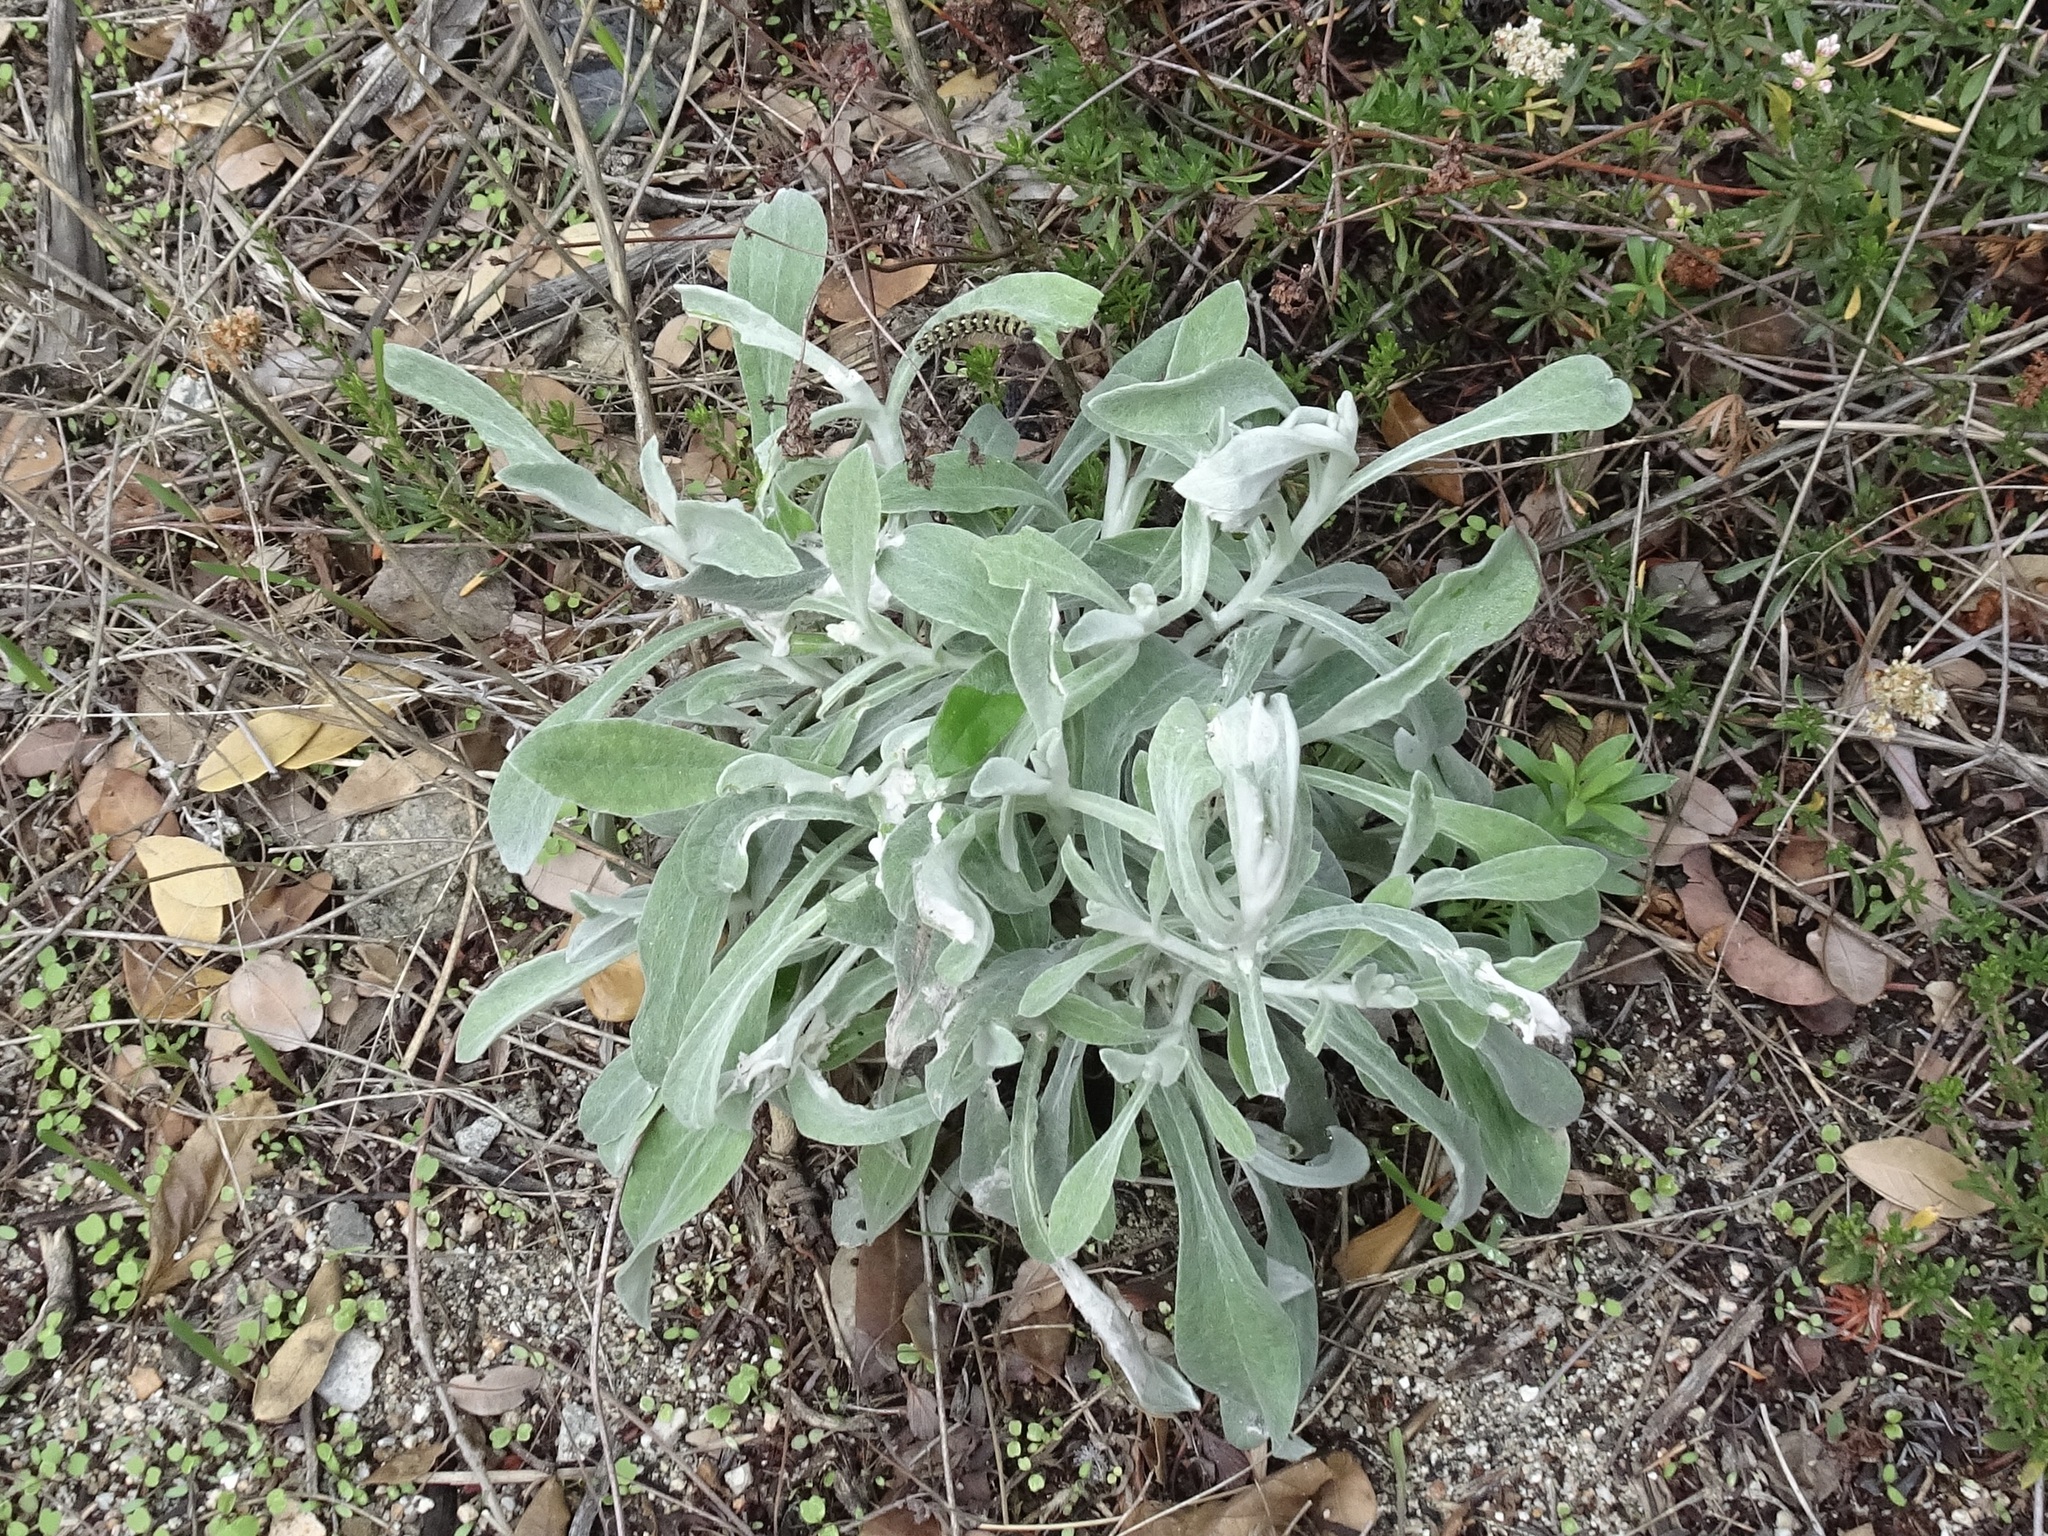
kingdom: Plantae
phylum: Tracheophyta
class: Magnoliopsida
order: Asterales
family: Asteraceae
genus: Pseudognaphalium
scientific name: Pseudognaphalium microcephalum
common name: San diego rabbit-tobacco
